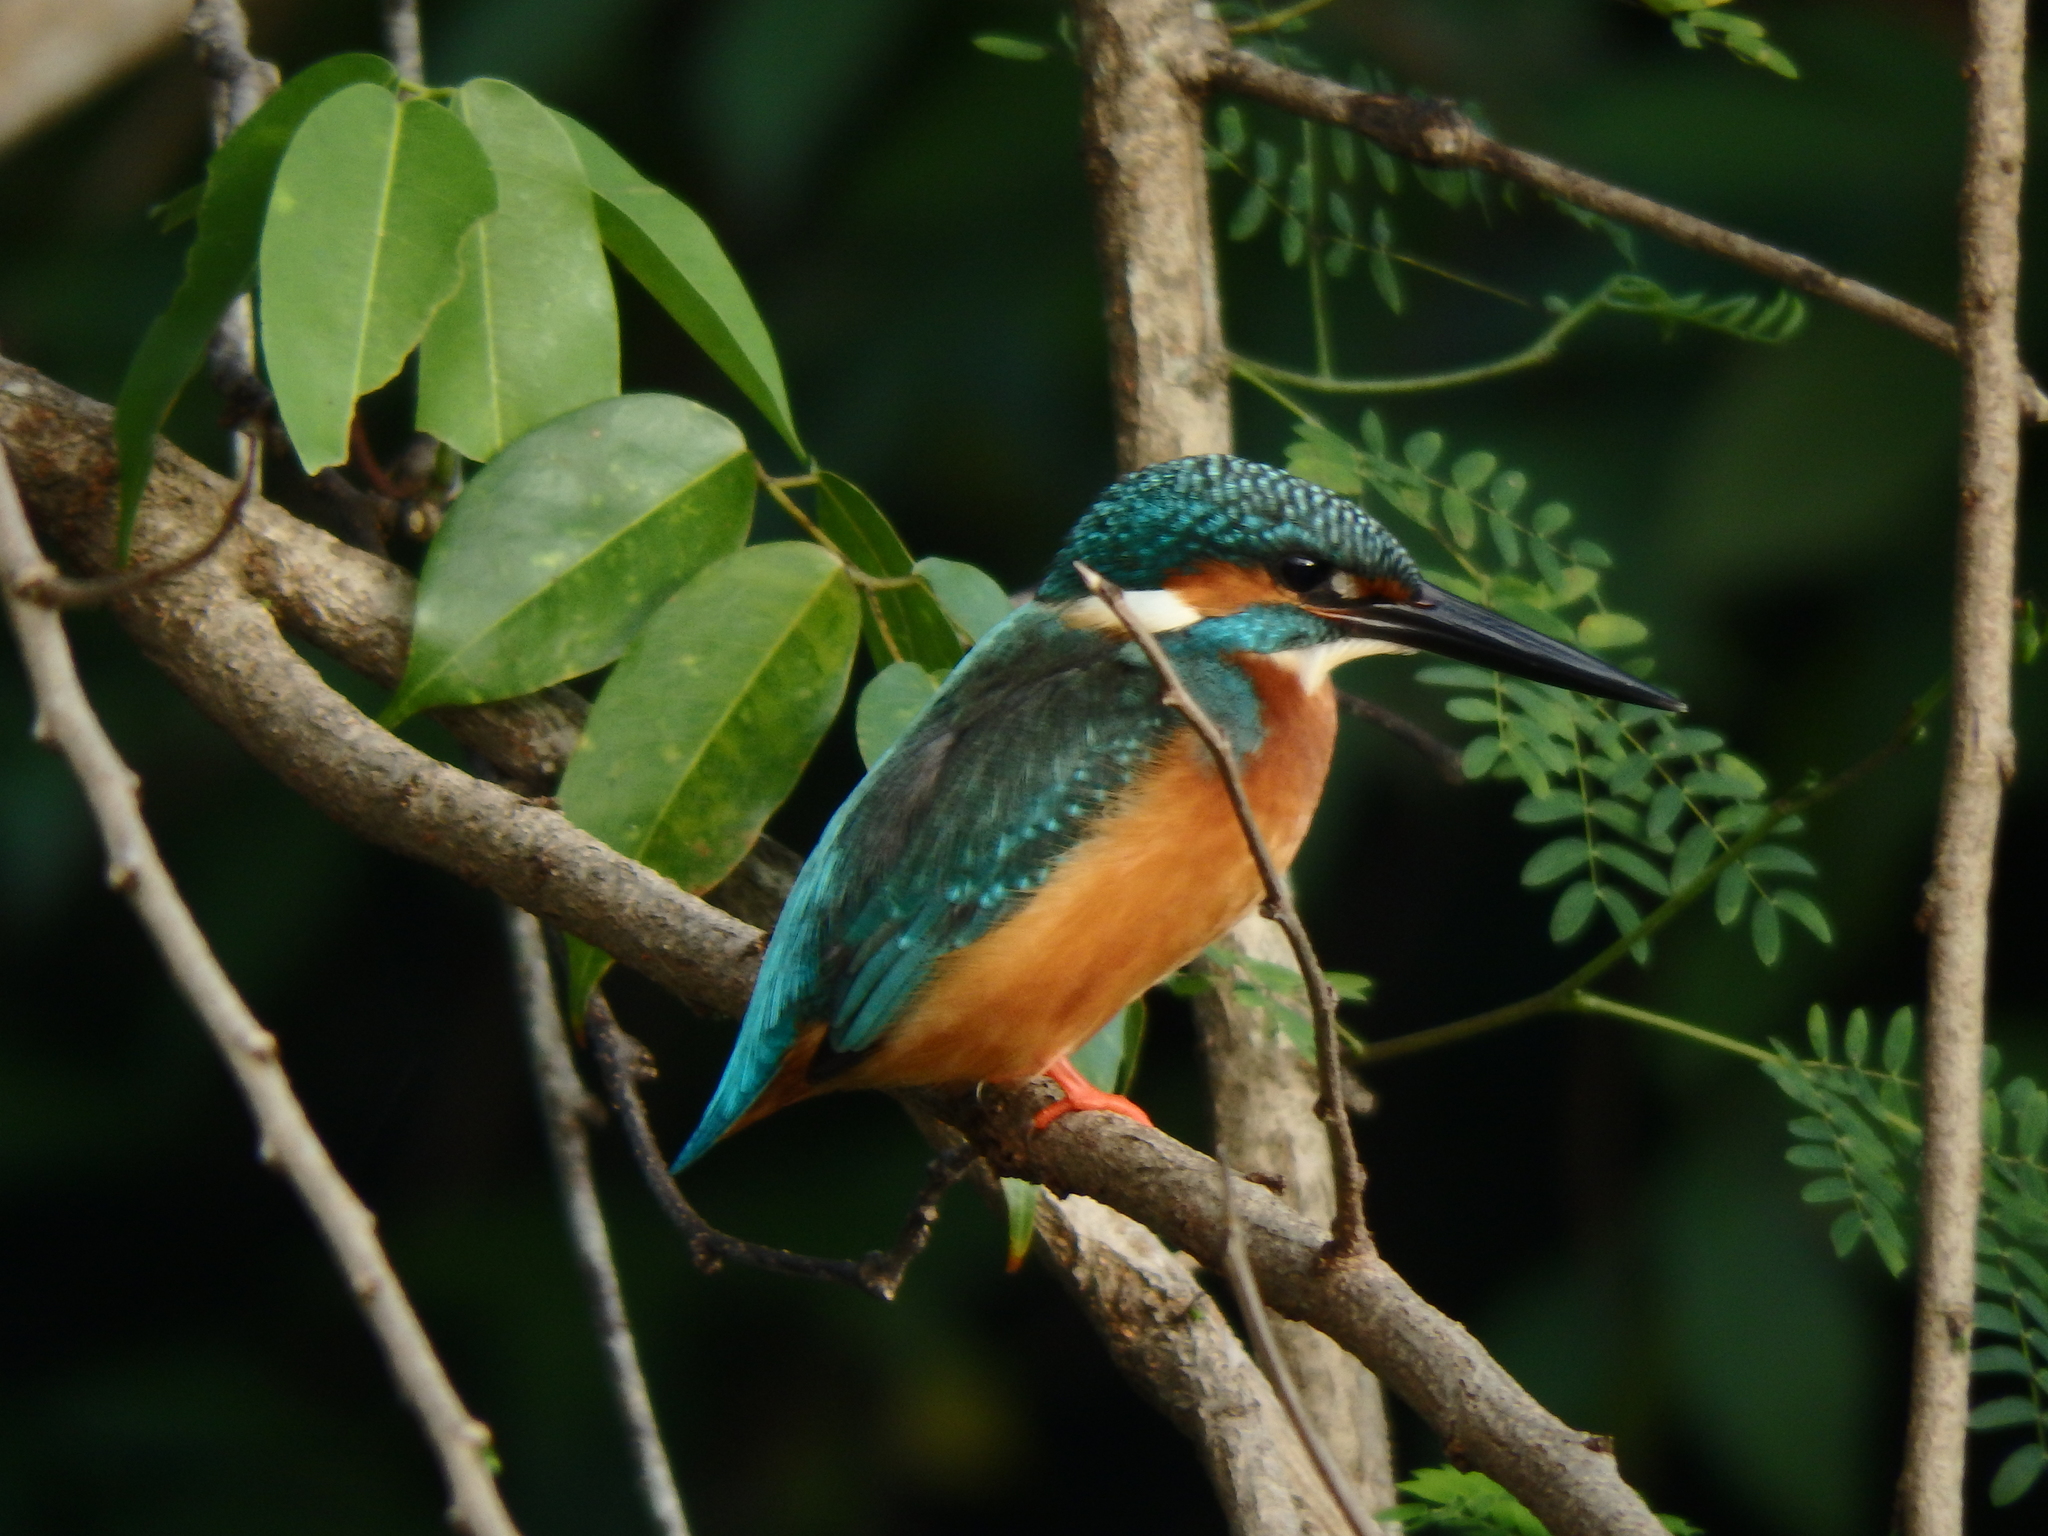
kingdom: Animalia
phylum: Chordata
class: Aves
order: Coraciiformes
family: Alcedinidae
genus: Alcedo
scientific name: Alcedo atthis
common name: Common kingfisher
